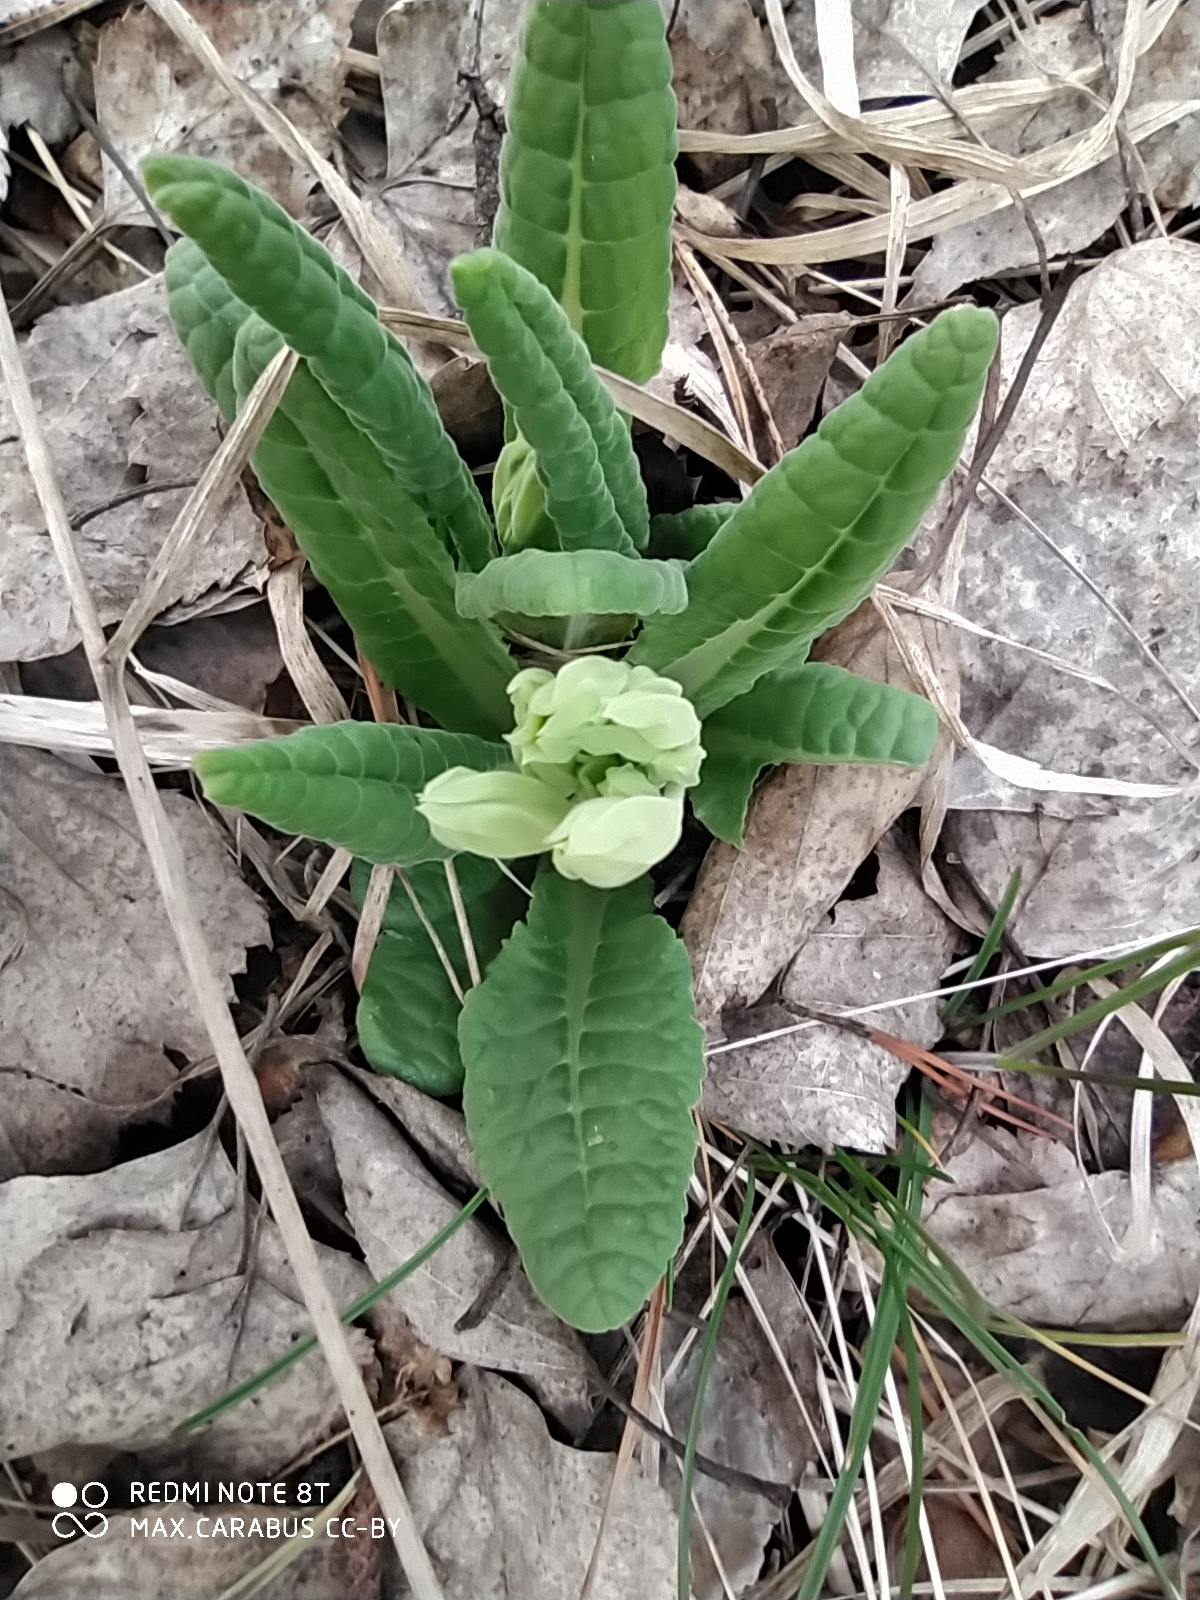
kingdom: Plantae
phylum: Tracheophyta
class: Magnoliopsida
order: Ericales
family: Primulaceae
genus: Primula
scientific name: Primula veris
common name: Cowslip
